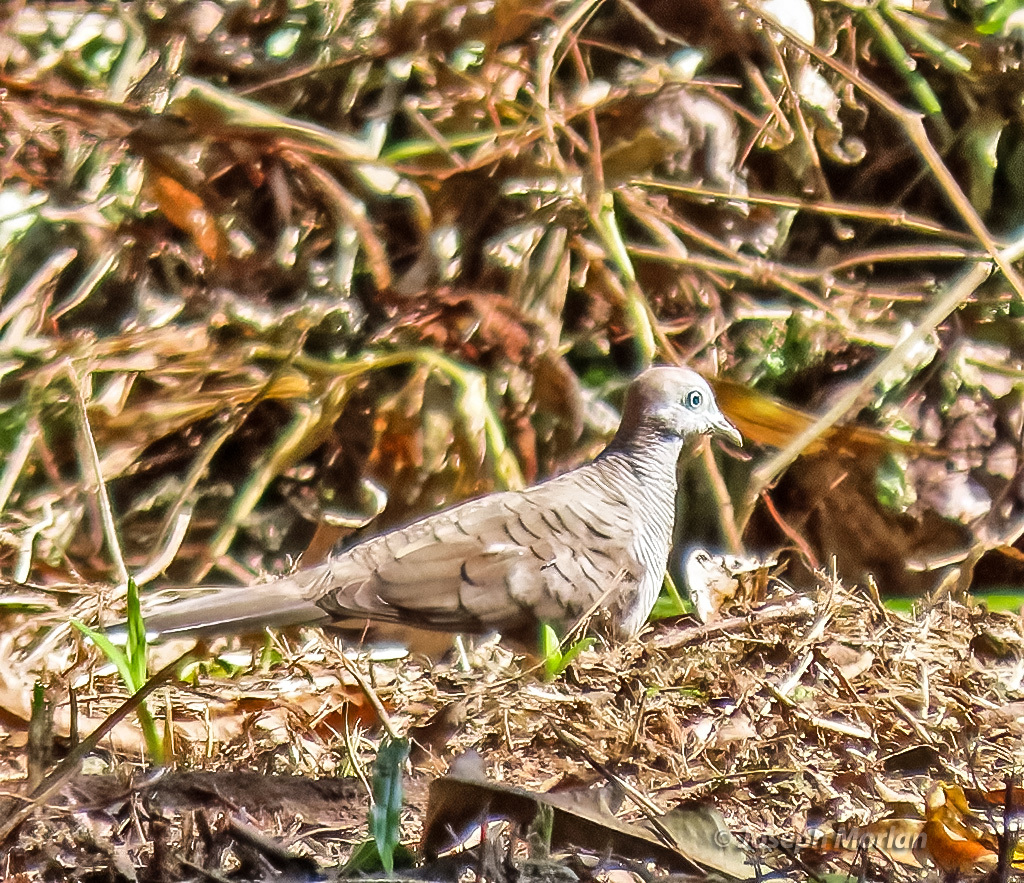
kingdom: Animalia
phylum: Chordata
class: Aves
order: Columbiformes
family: Columbidae
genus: Geopelia
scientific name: Geopelia striata
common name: Zebra dove
